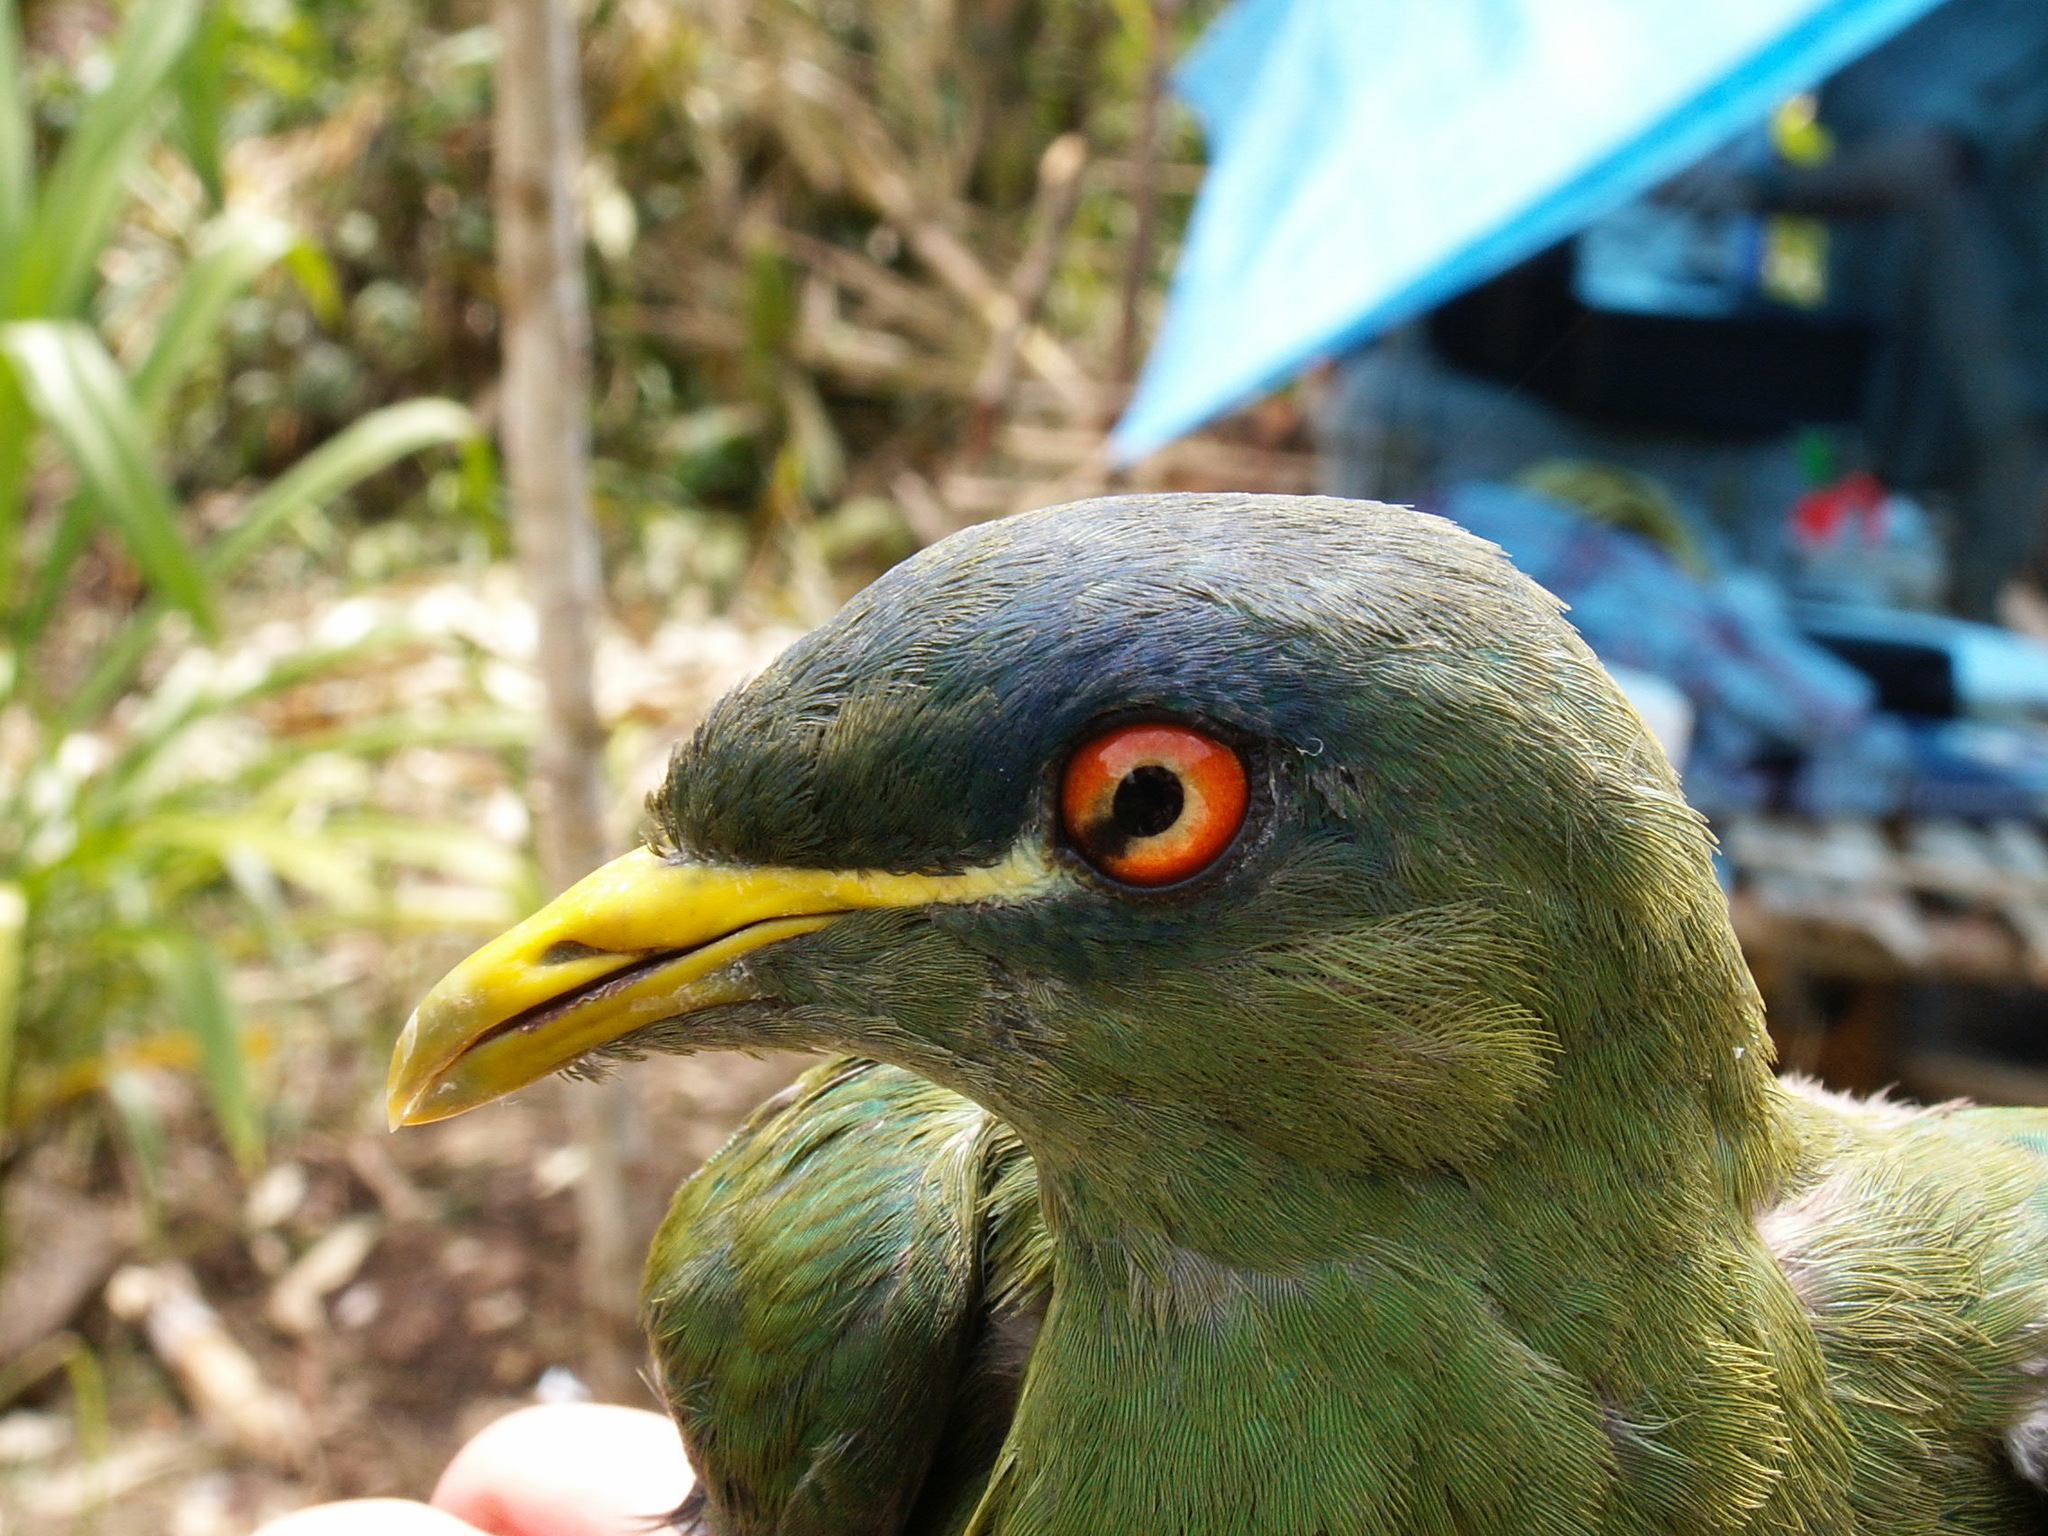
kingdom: Animalia
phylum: Chordata
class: Aves
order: Columbiformes
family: Columbidae
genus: Ptilinopus
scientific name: Ptilinopus rivoli
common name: White-bibbed fruit dove
